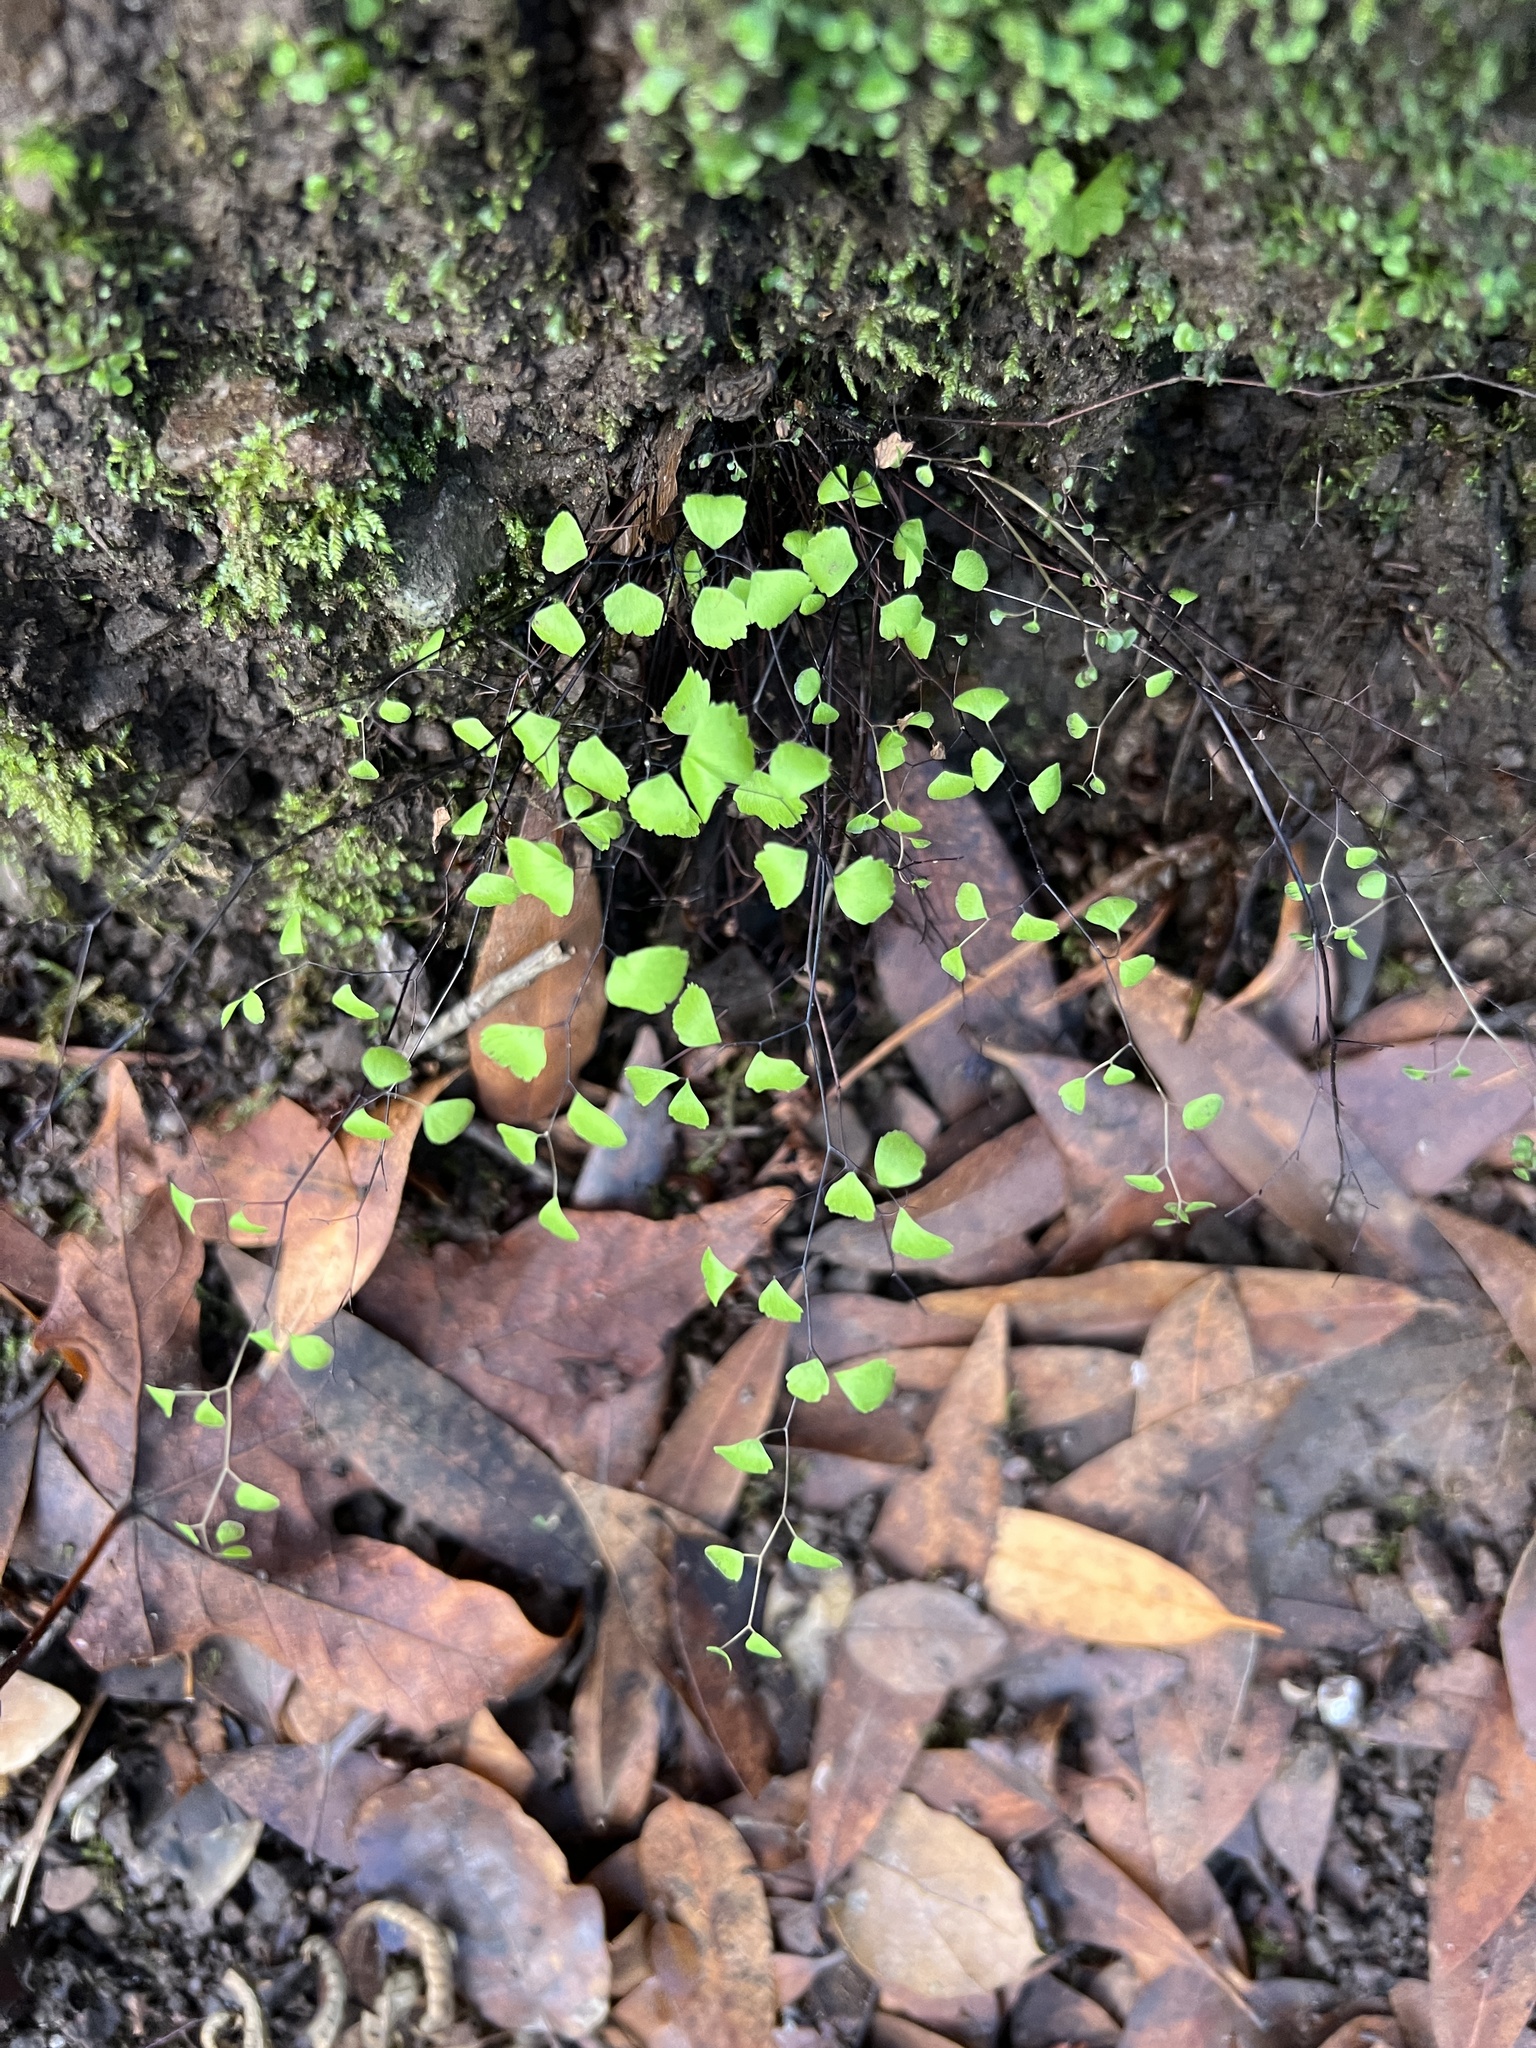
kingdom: Plantae
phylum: Tracheophyta
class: Polypodiopsida
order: Polypodiales
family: Pteridaceae
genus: Adiantum
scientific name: Adiantum jordanii
